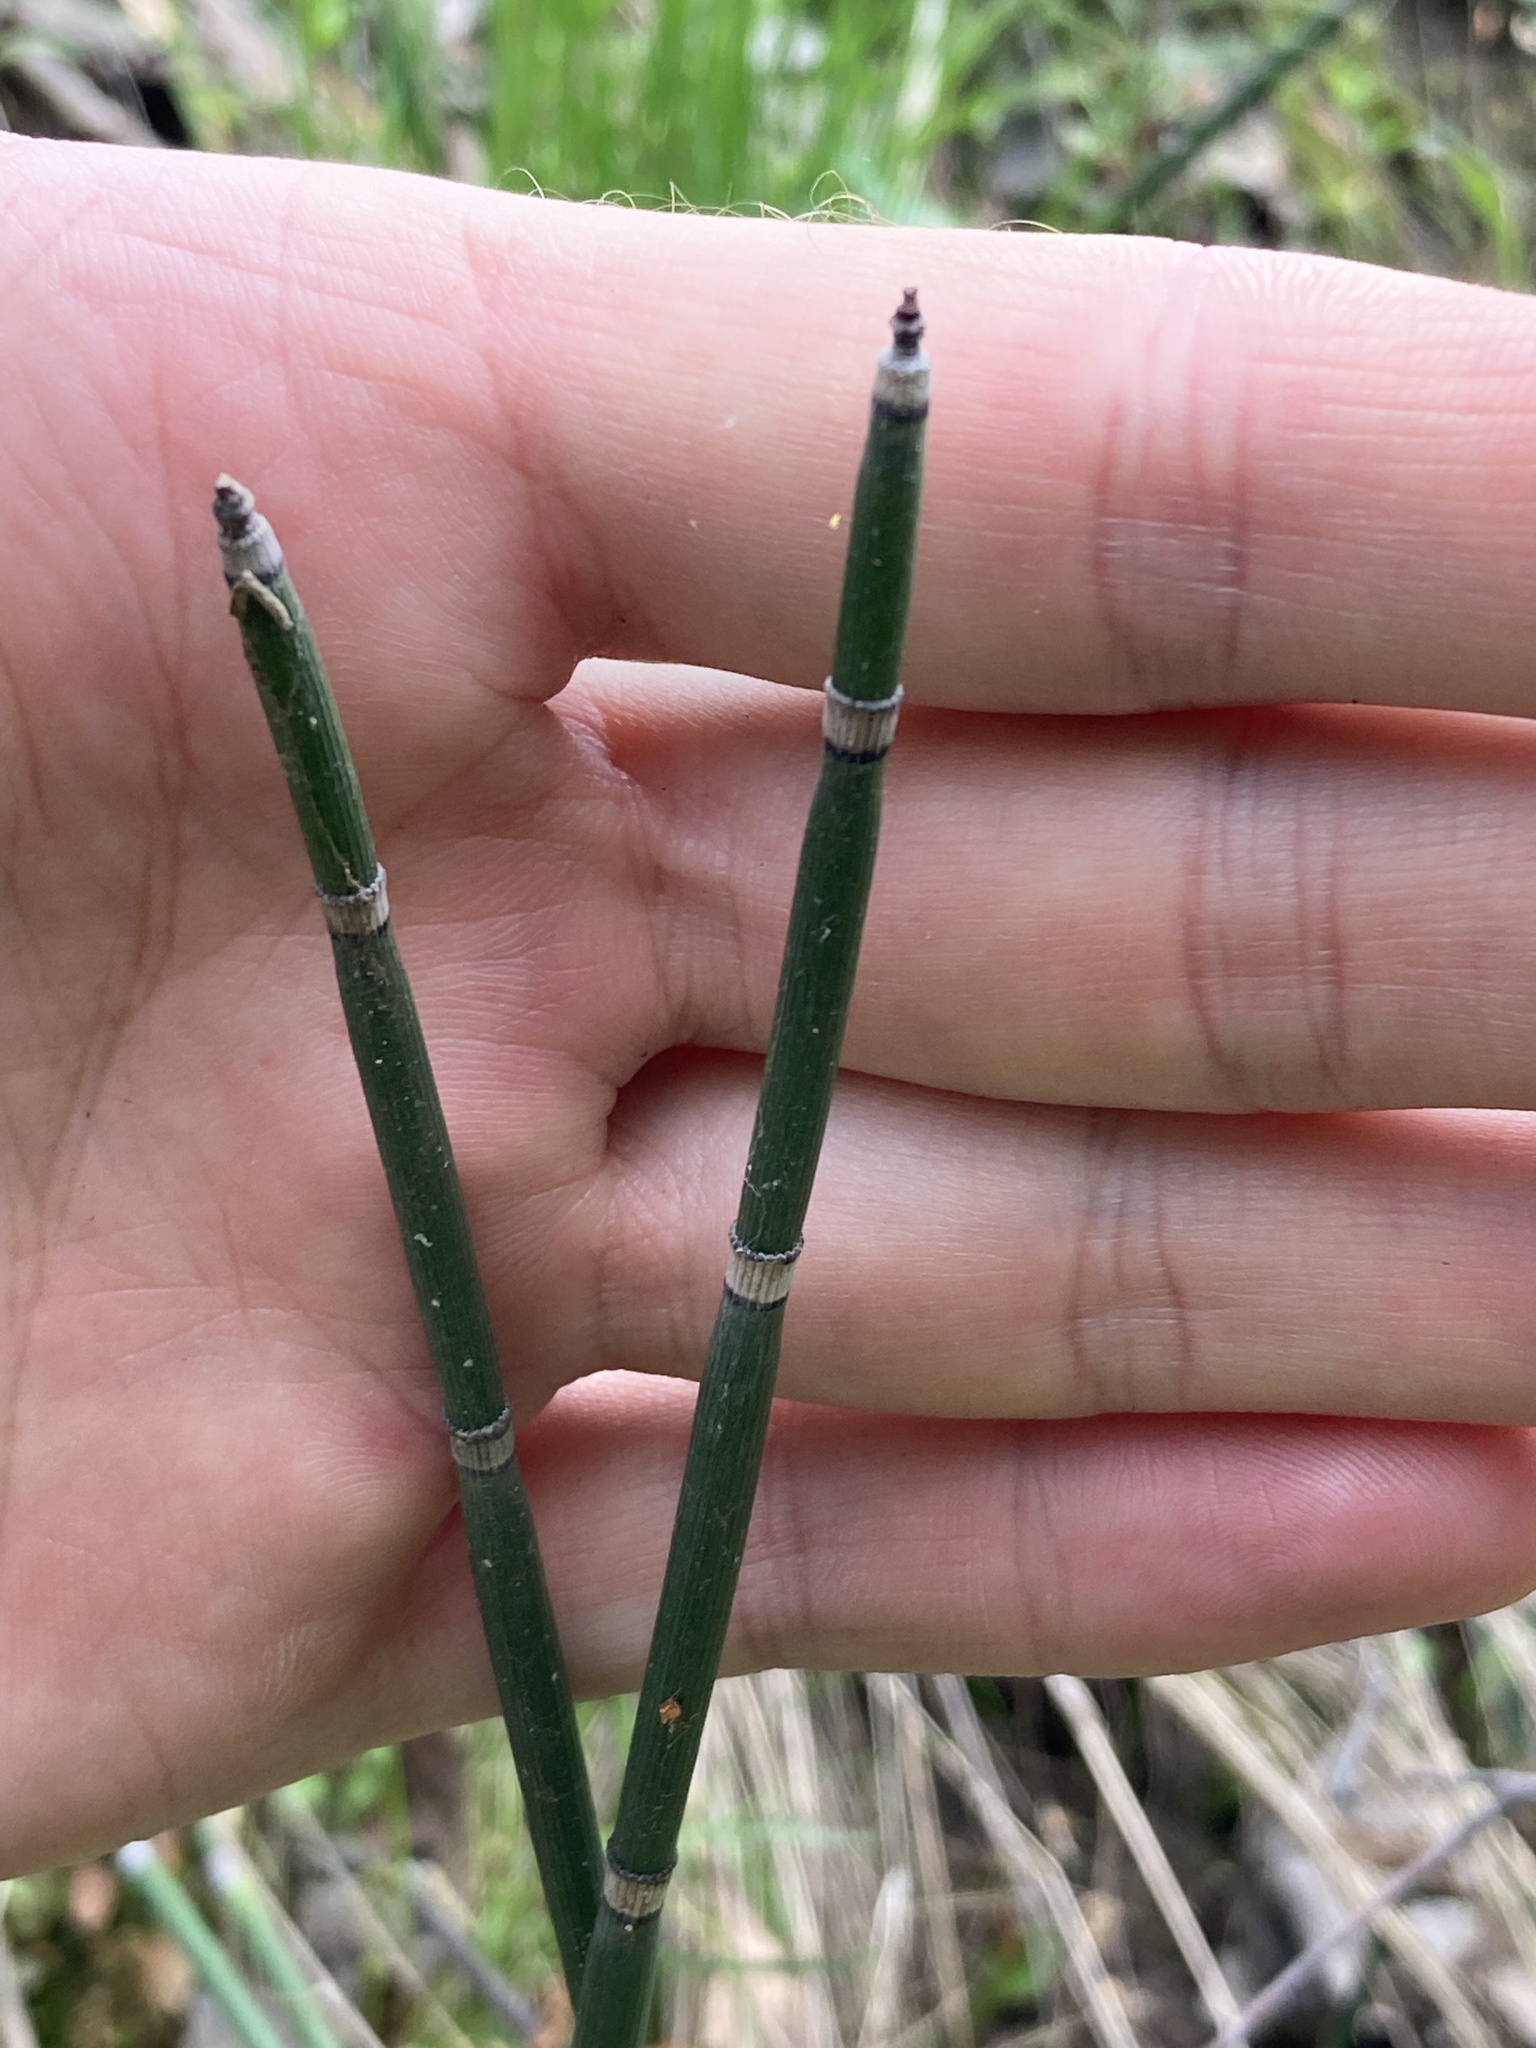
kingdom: Plantae
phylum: Tracheophyta
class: Polypodiopsida
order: Equisetales
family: Equisetaceae
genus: Equisetum
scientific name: Equisetum hyemale
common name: Rough horsetail
